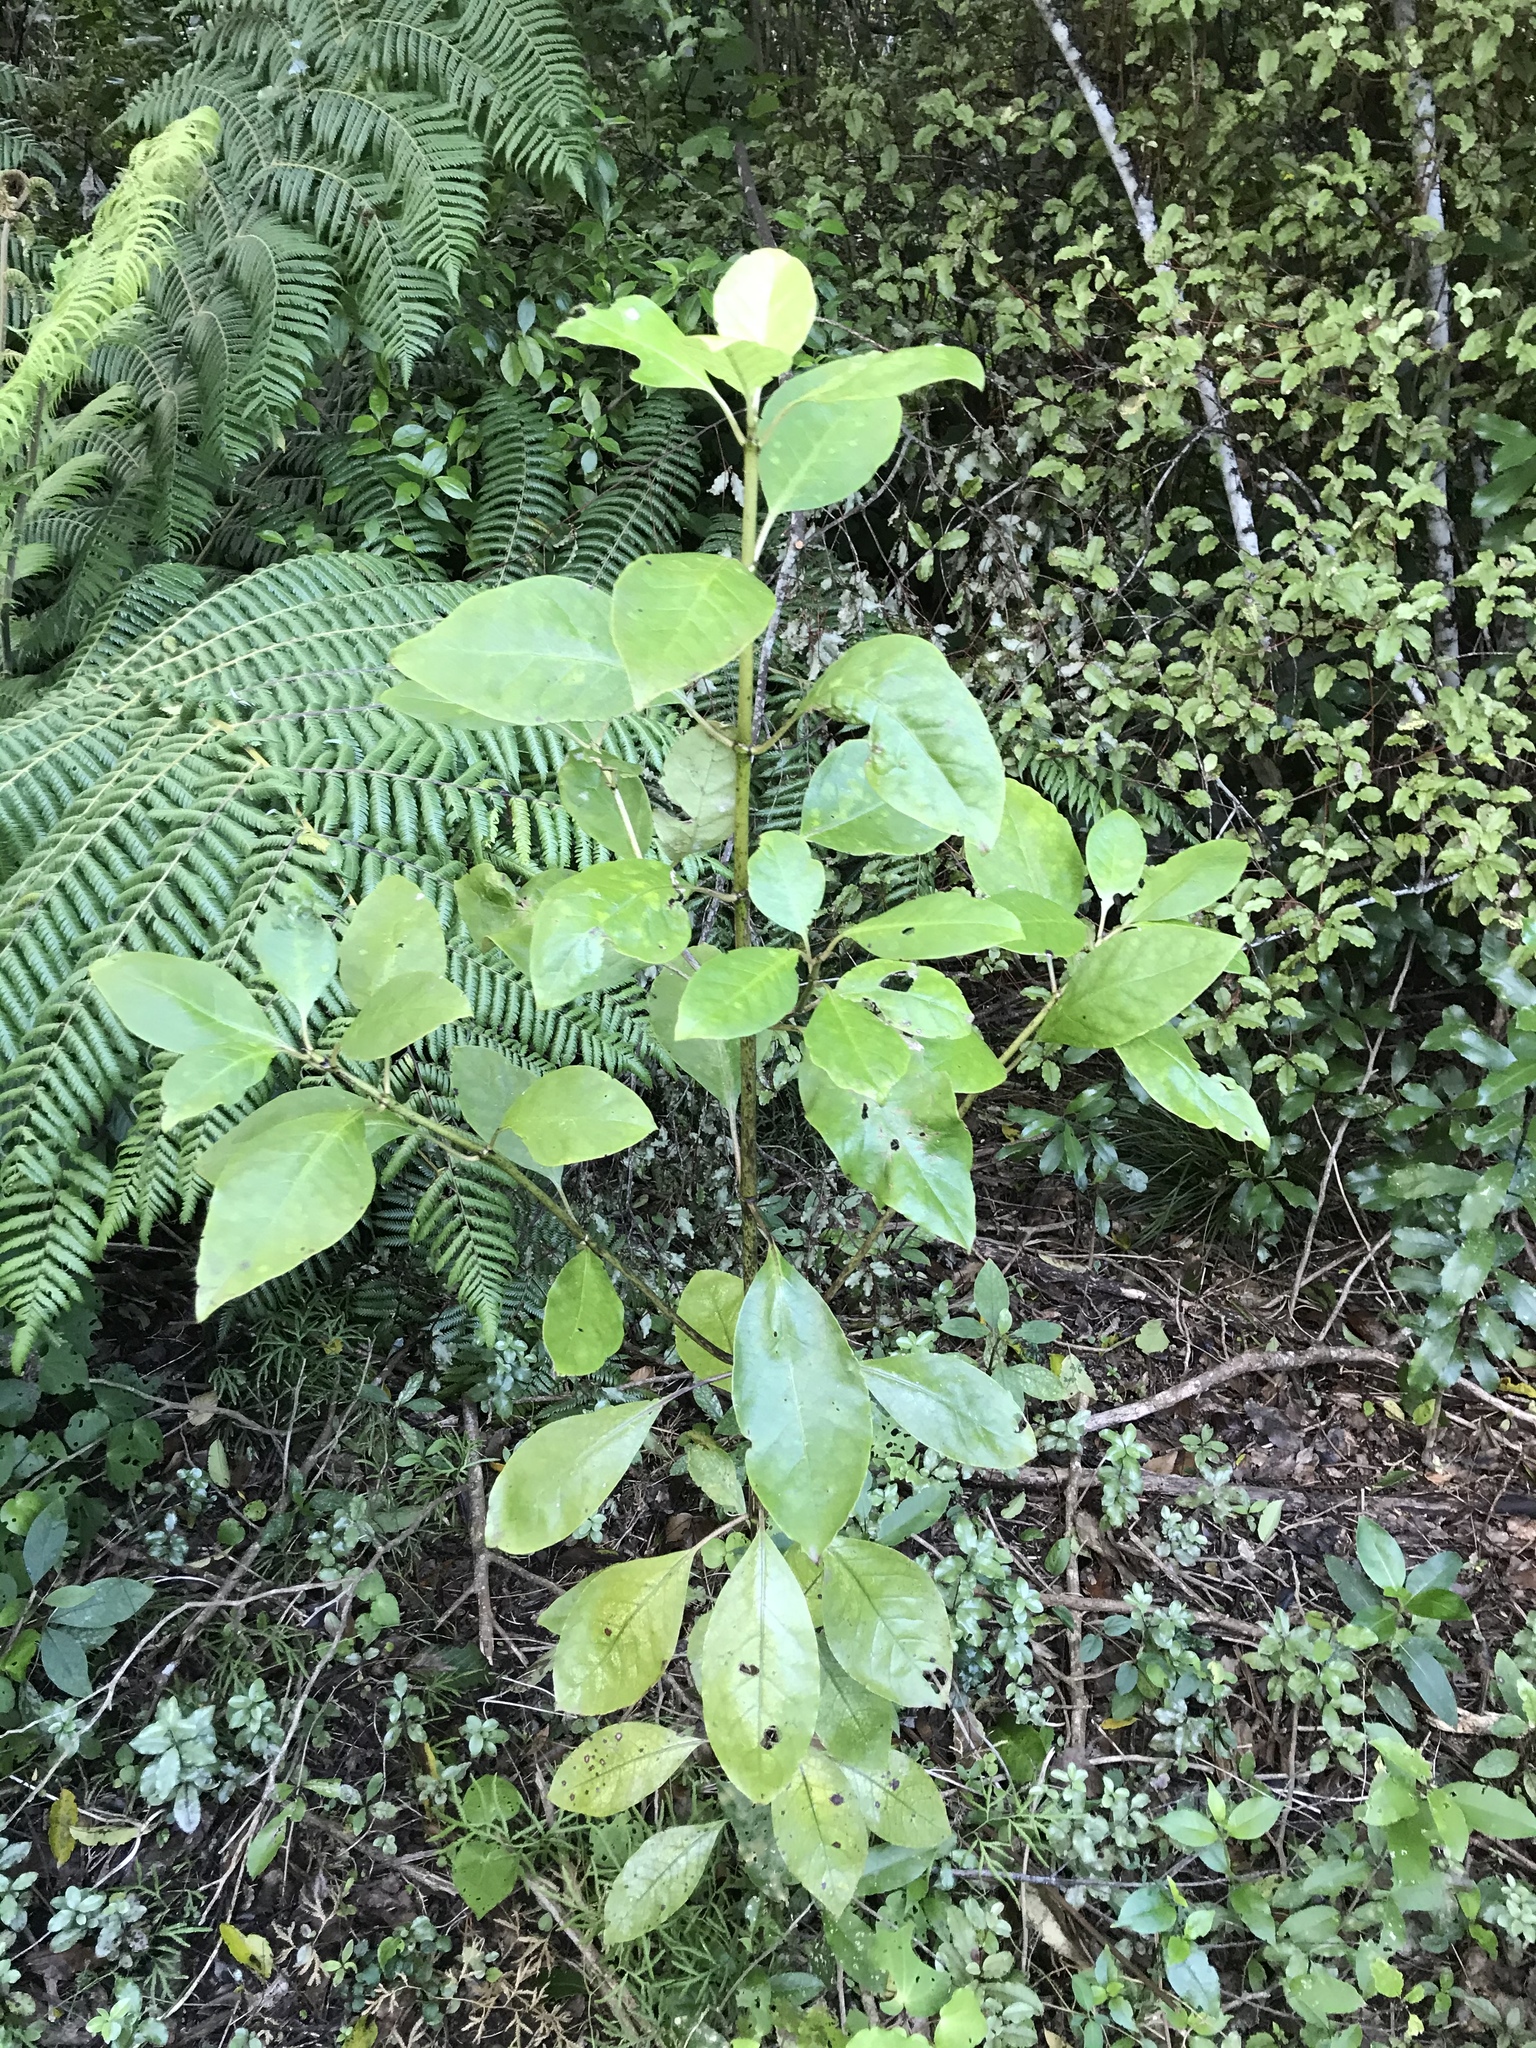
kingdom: Plantae
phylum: Tracheophyta
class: Magnoliopsida
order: Gentianales
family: Rubiaceae
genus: Coprosma
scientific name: Coprosma autumnalis
